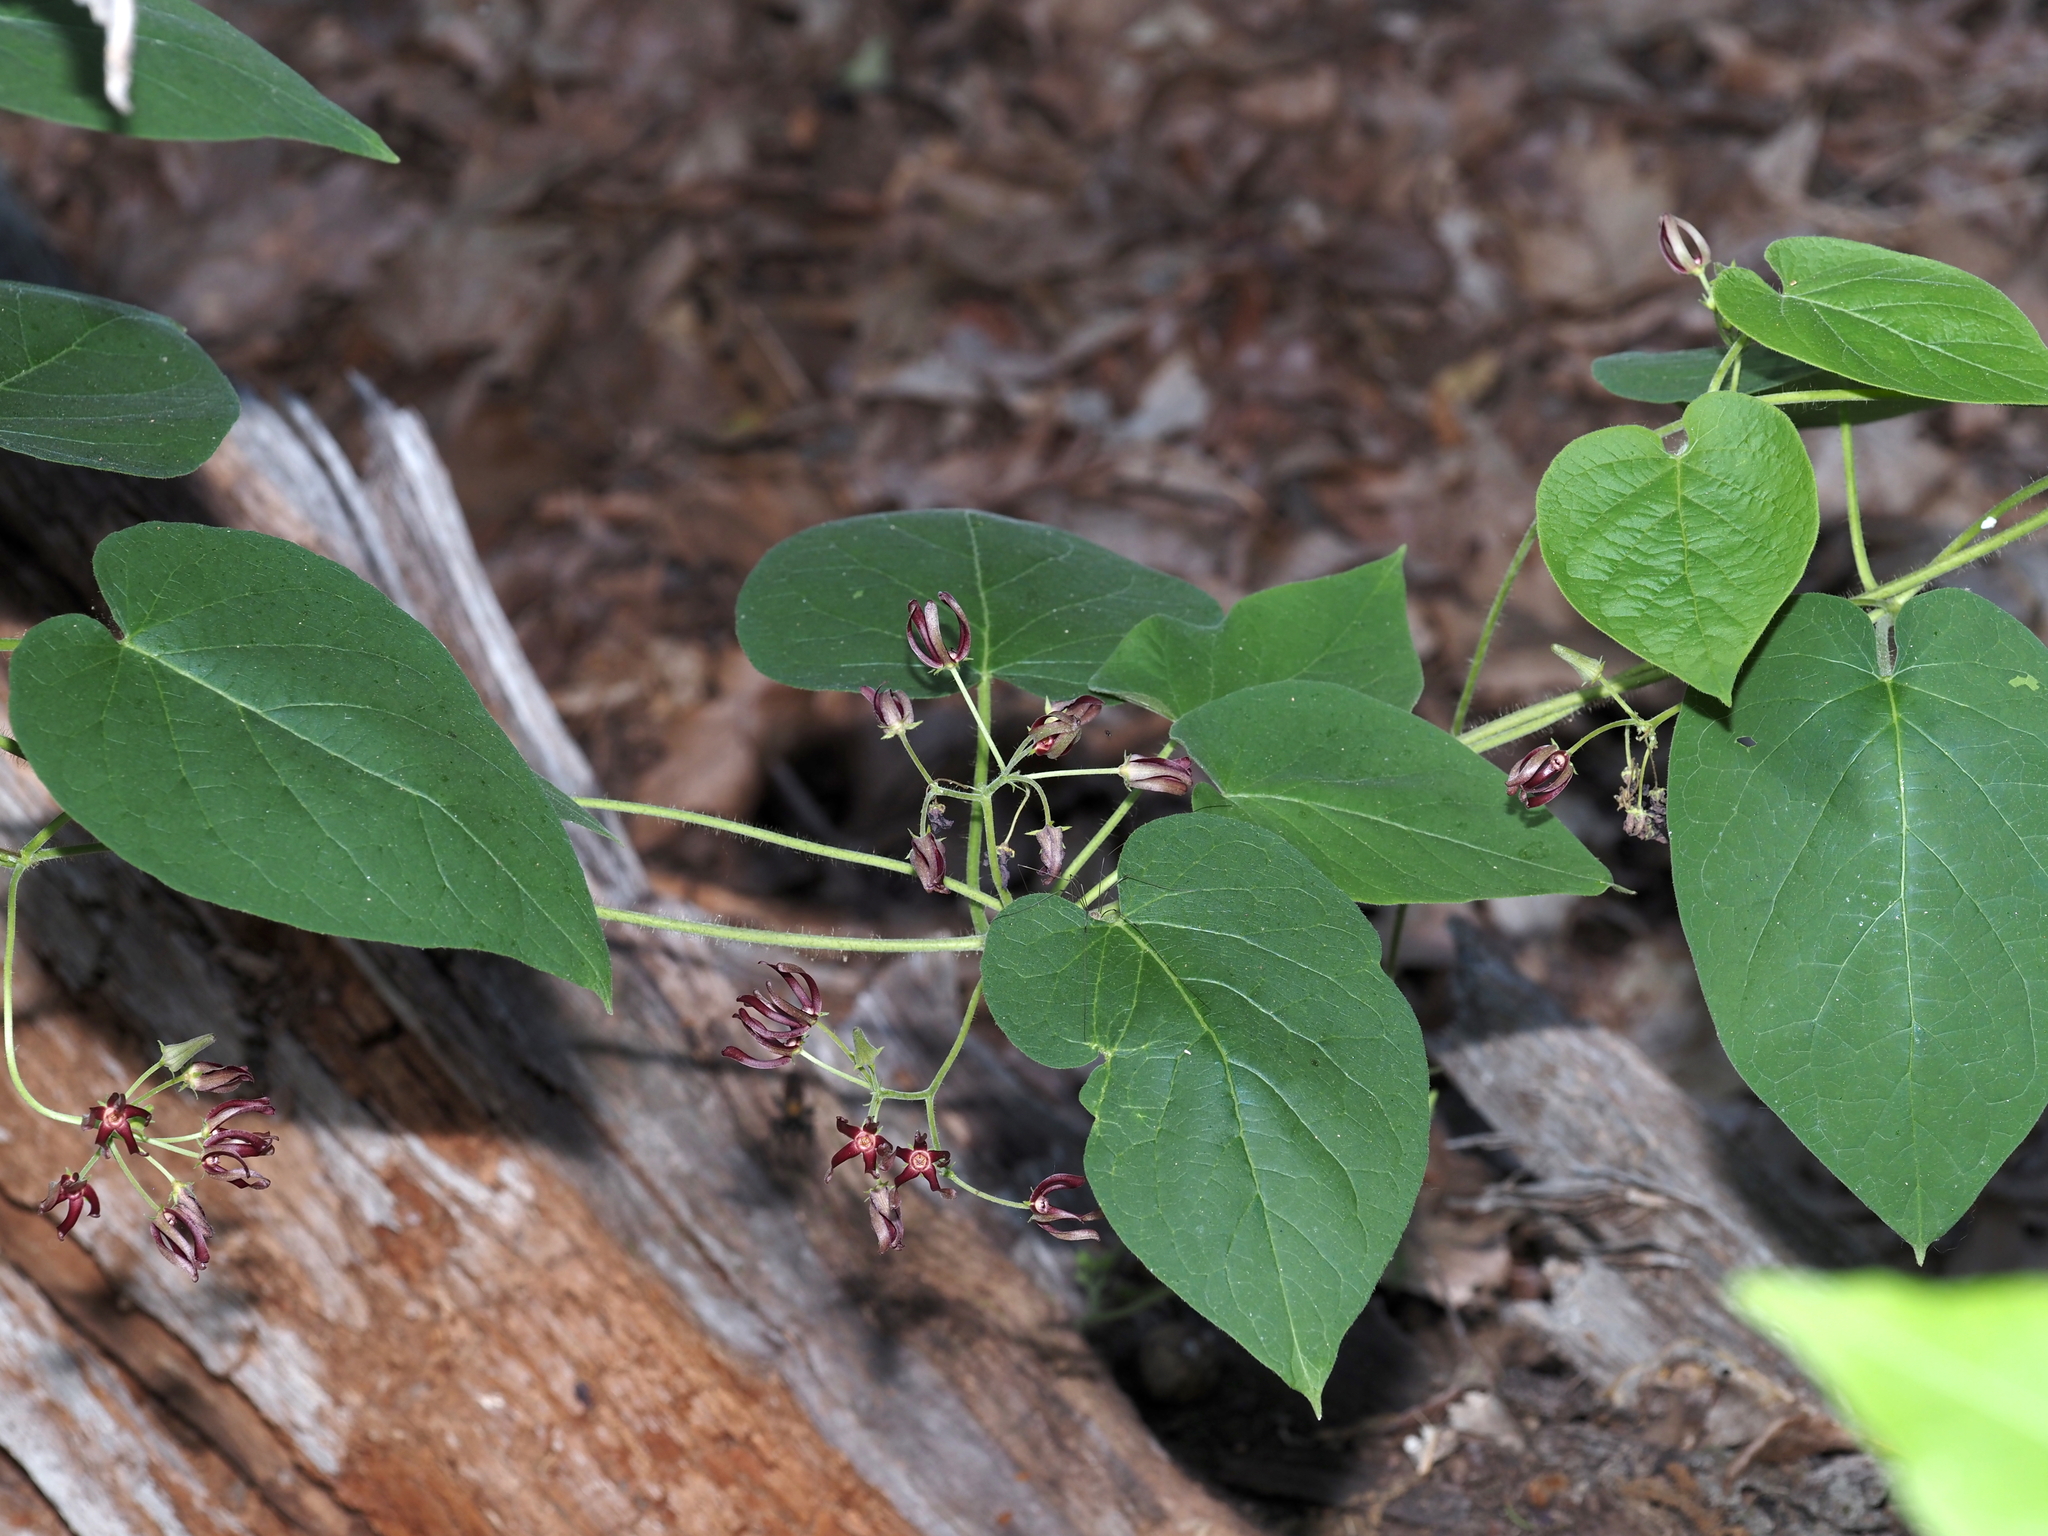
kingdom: Plantae
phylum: Tracheophyta
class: Magnoliopsida
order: Gentianales
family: Apocynaceae
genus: Matelea
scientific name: Matelea obliqua
